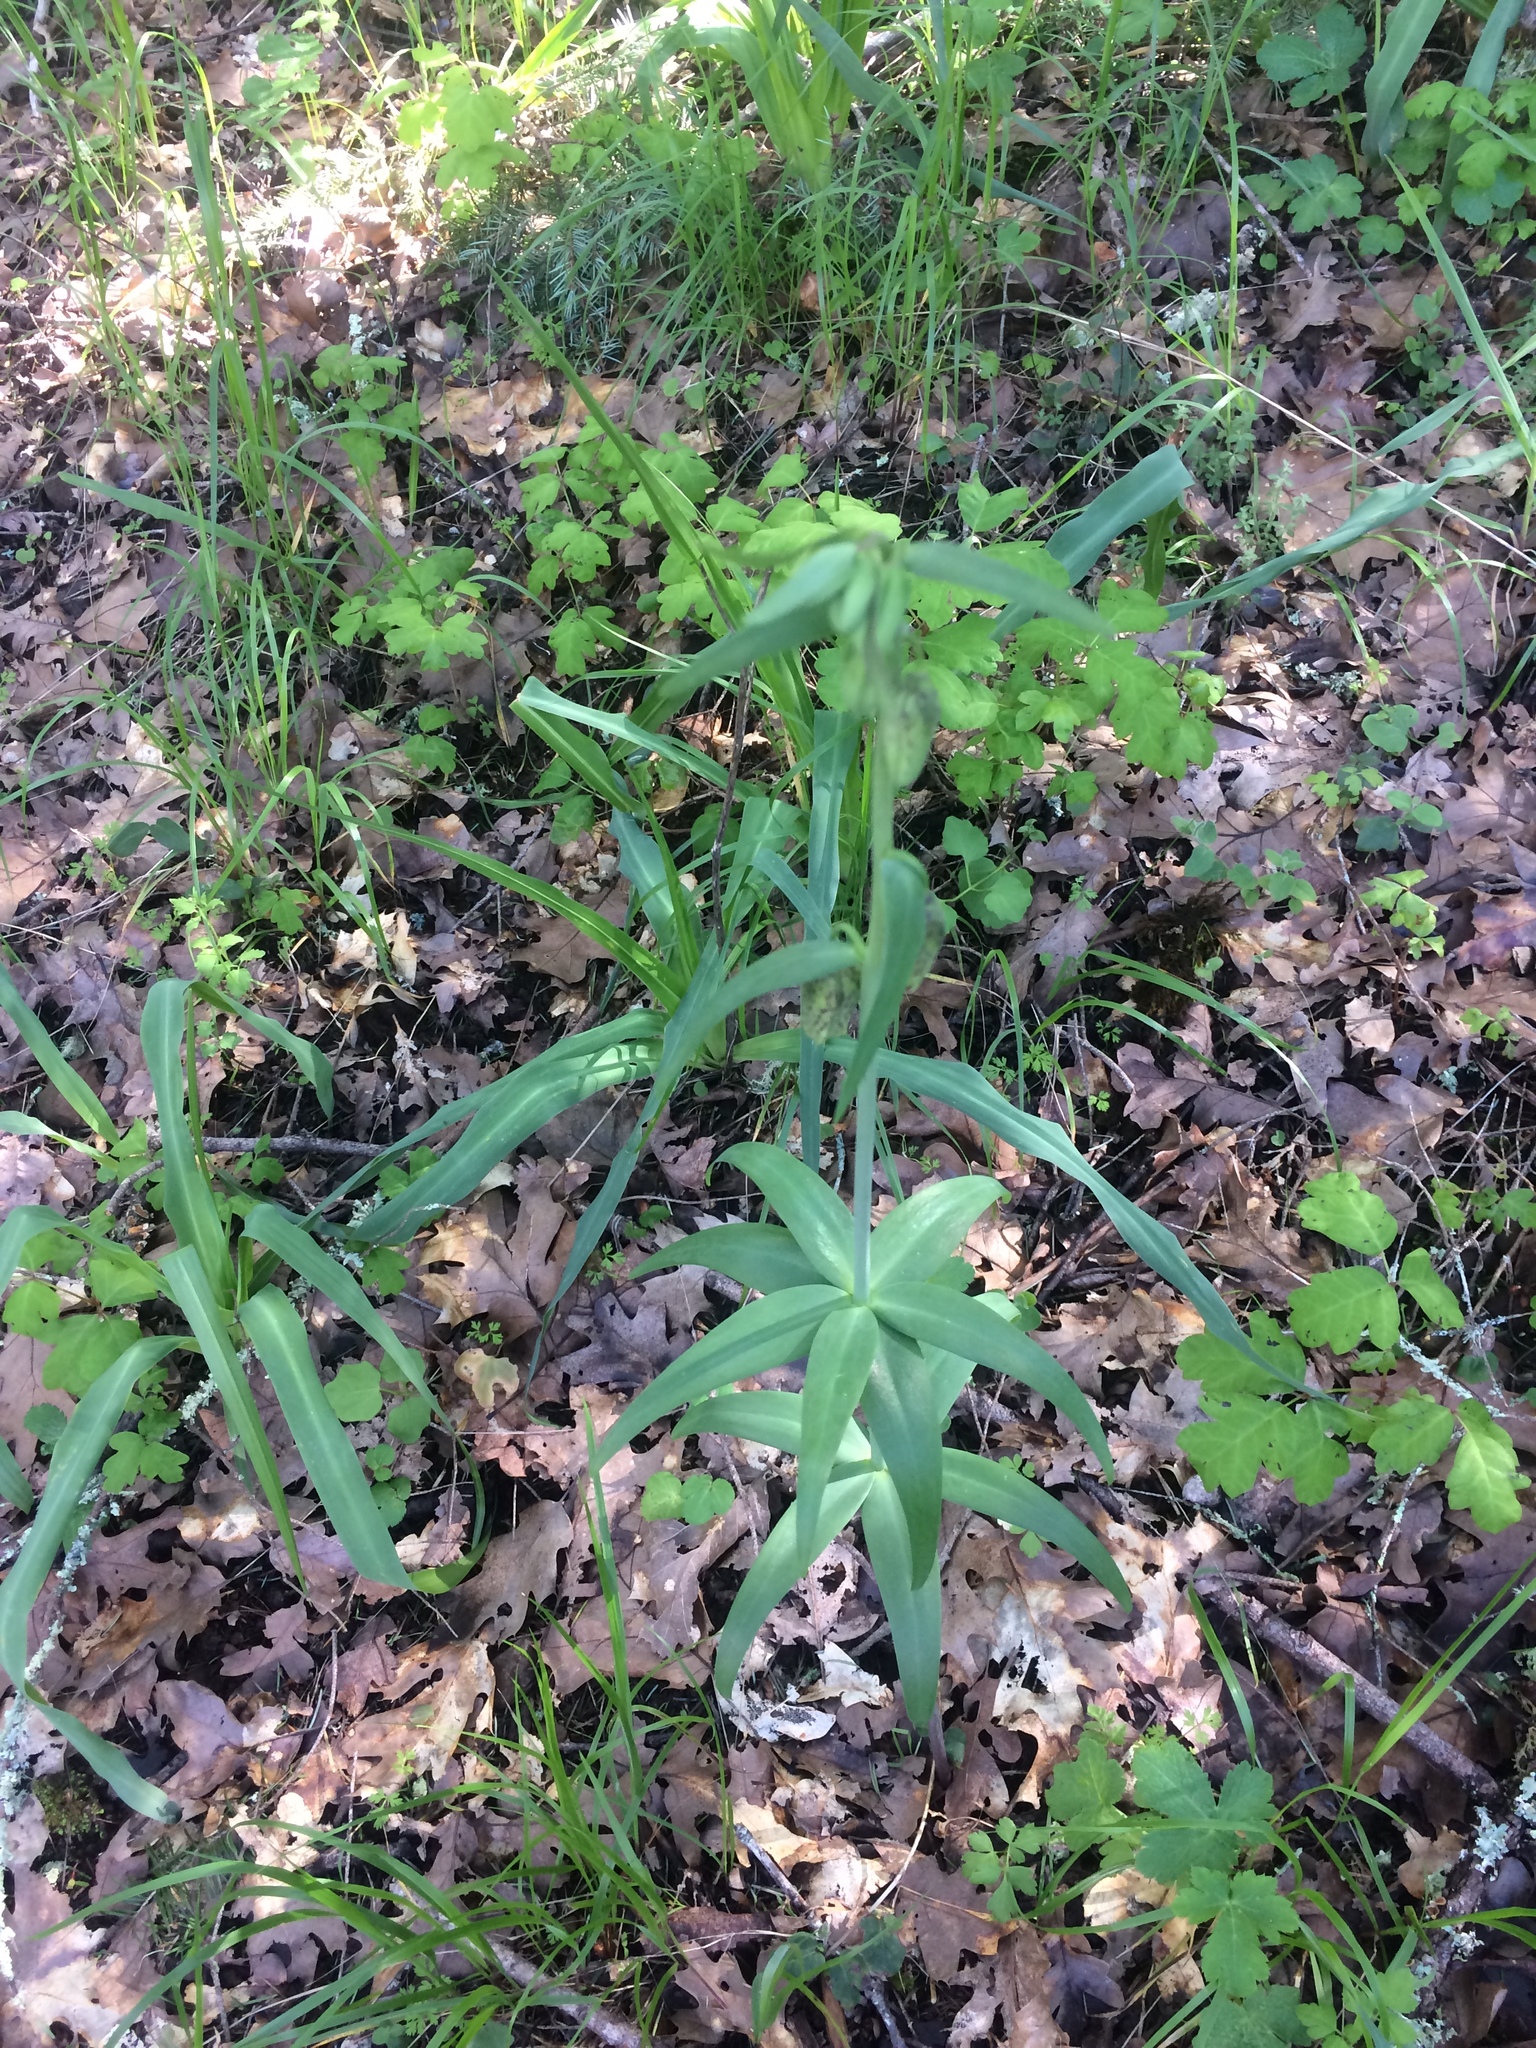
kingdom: Plantae
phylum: Tracheophyta
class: Liliopsida
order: Liliales
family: Liliaceae
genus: Fritillaria
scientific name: Fritillaria affinis
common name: Ojai fritillary
